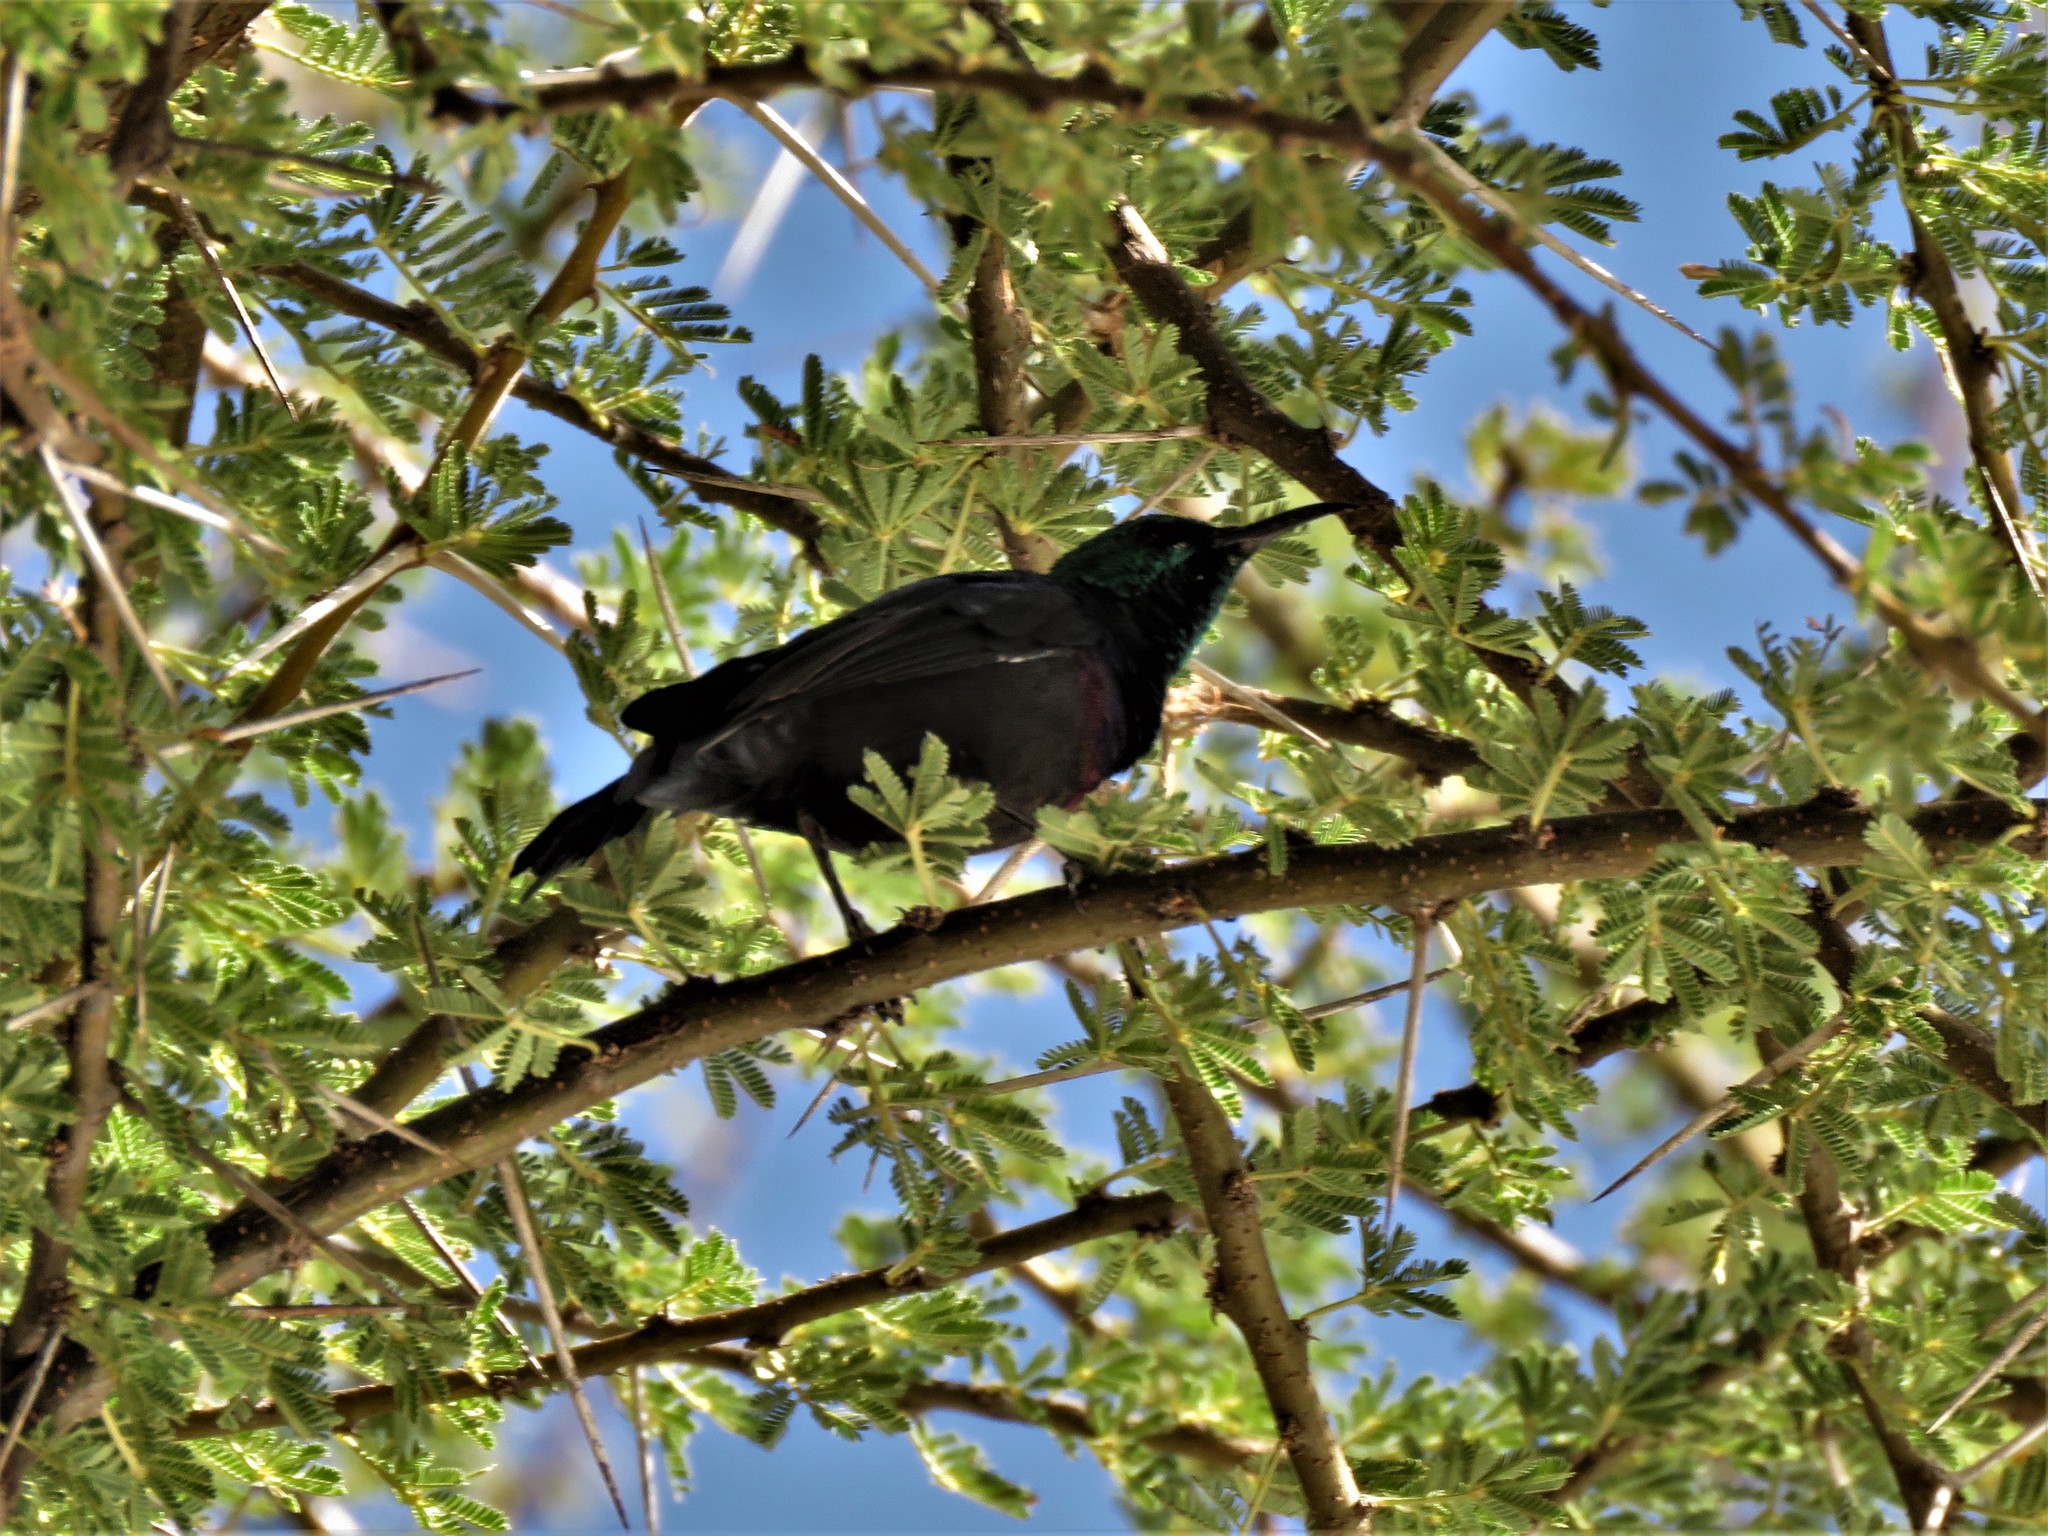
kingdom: Animalia
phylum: Chordata
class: Aves
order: Passeriformes
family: Nectariniidae
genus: Cinnyris
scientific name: Cinnyris mariquensis
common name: Marico sunbird
